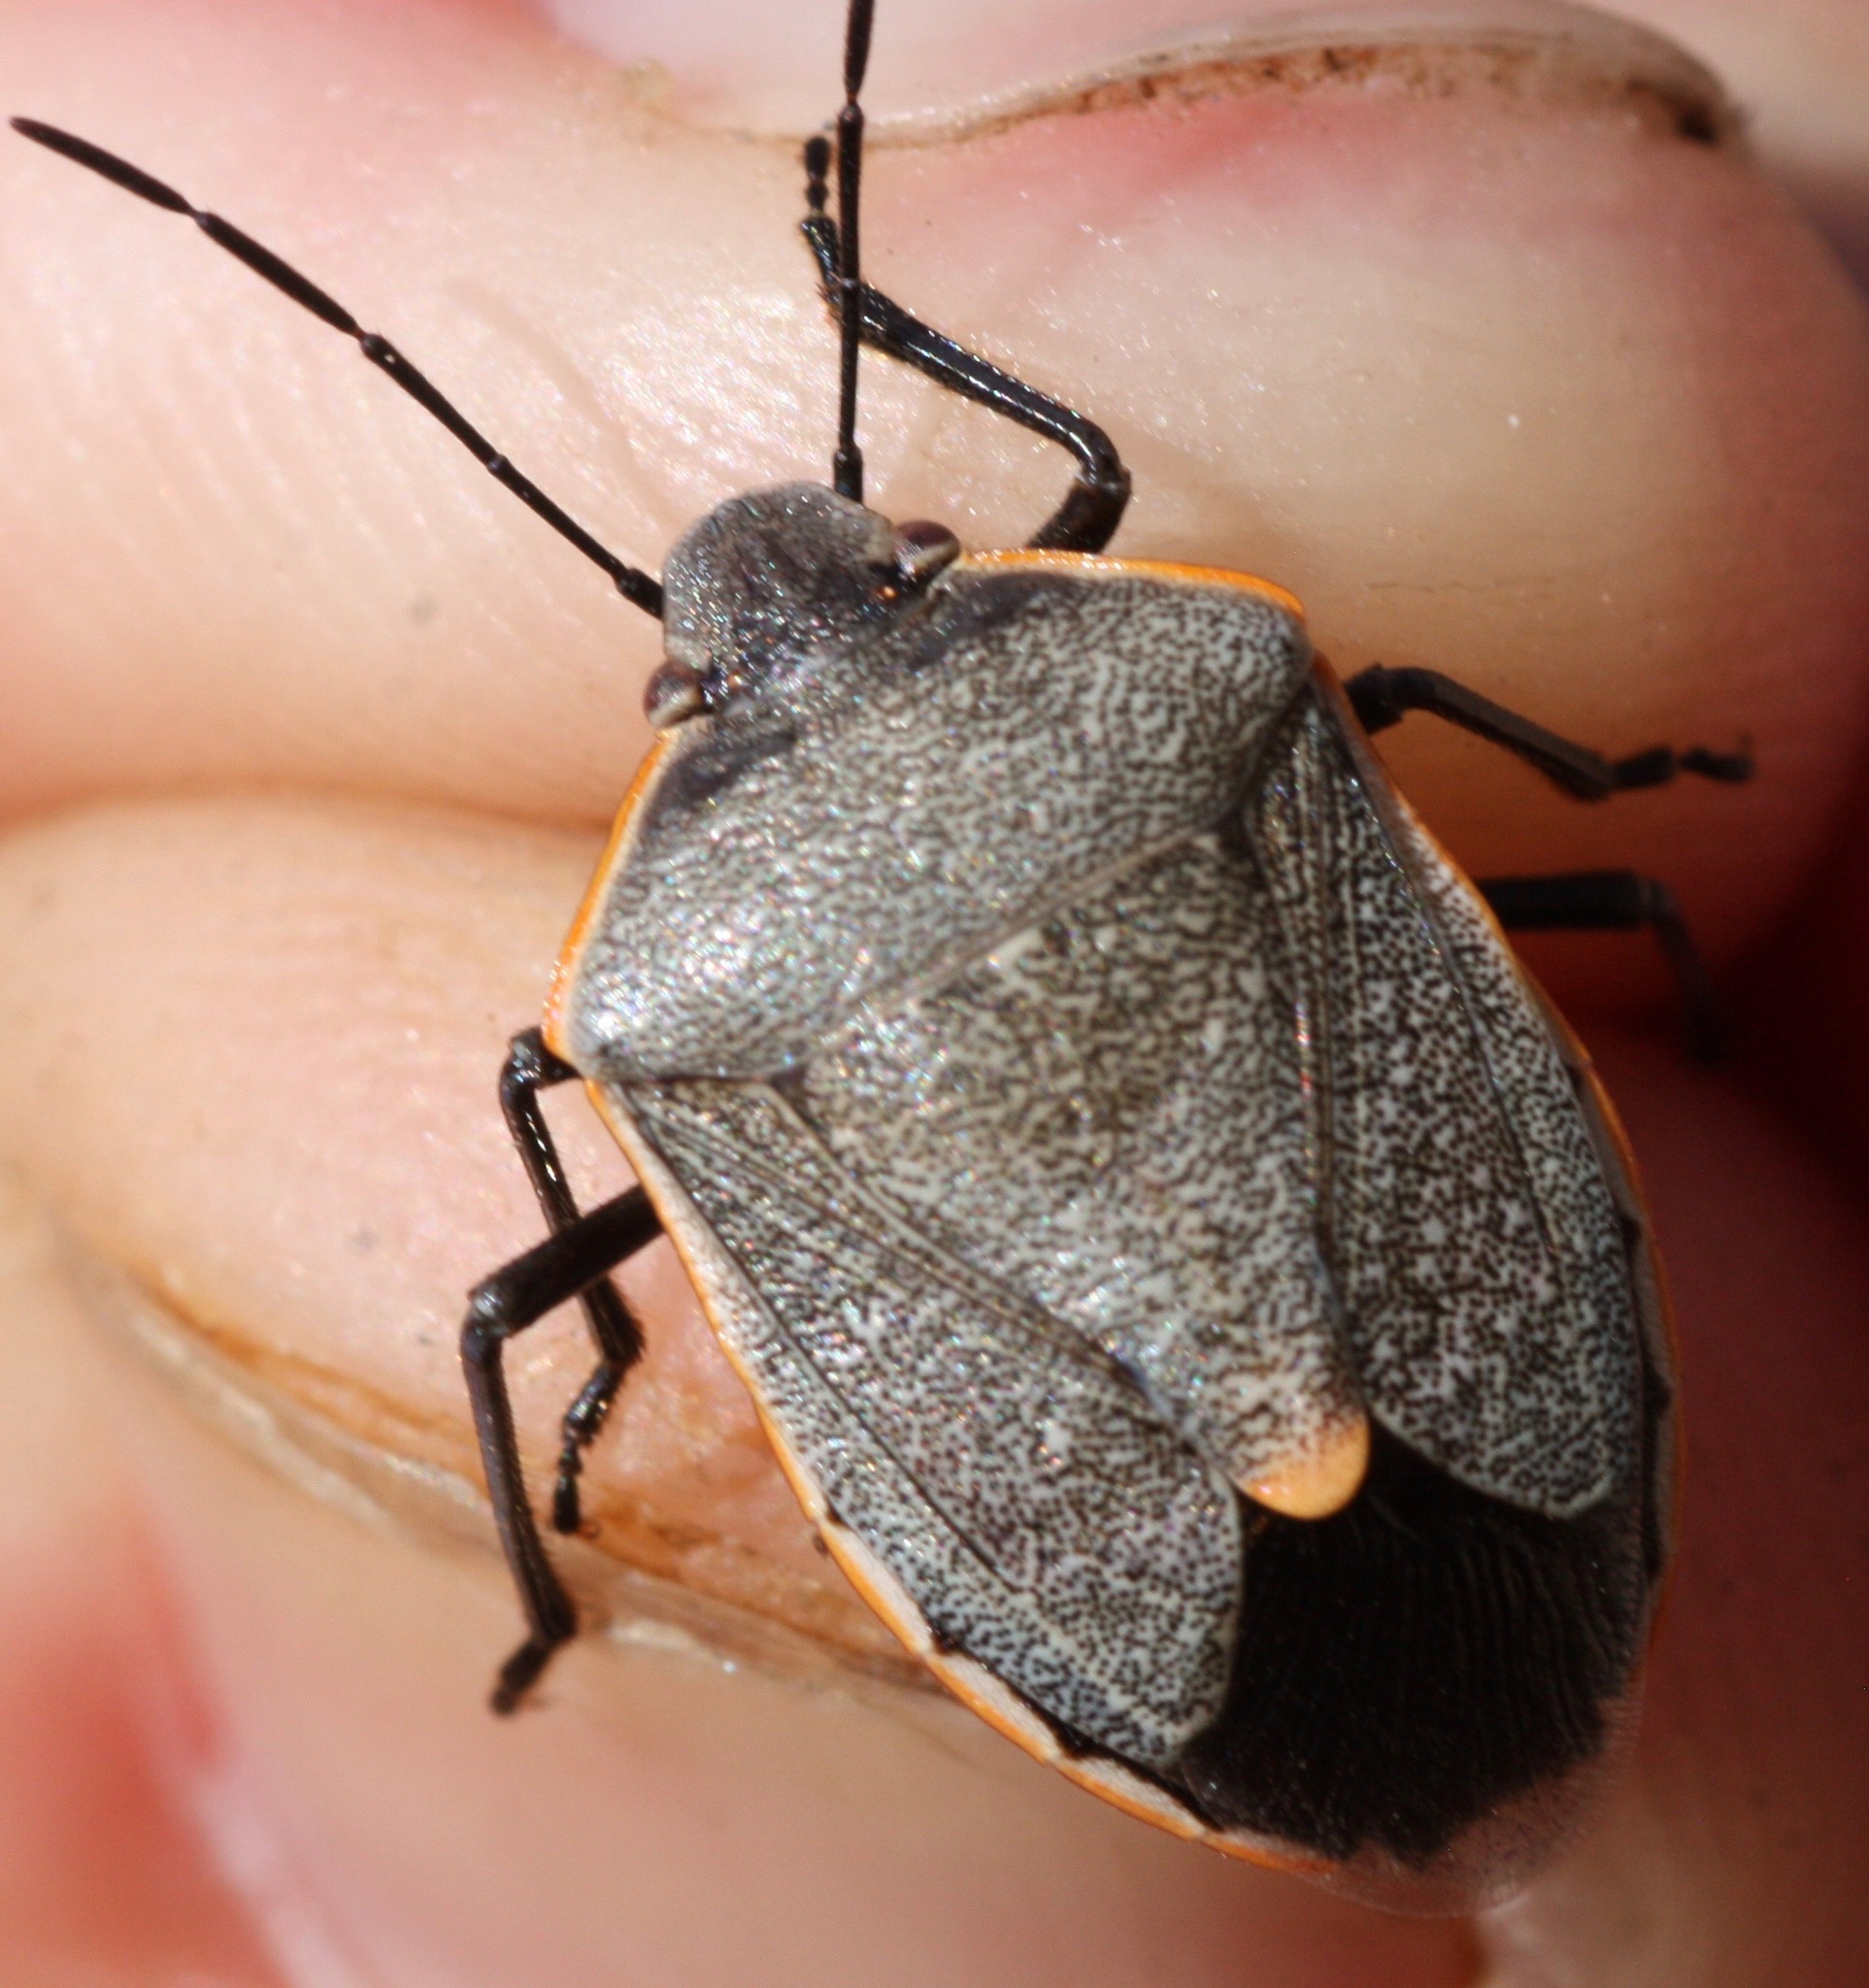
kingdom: Animalia
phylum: Arthropoda
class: Insecta
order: Hemiptera
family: Pentatomidae
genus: Chlorochroa
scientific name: Chlorochroa ligata
